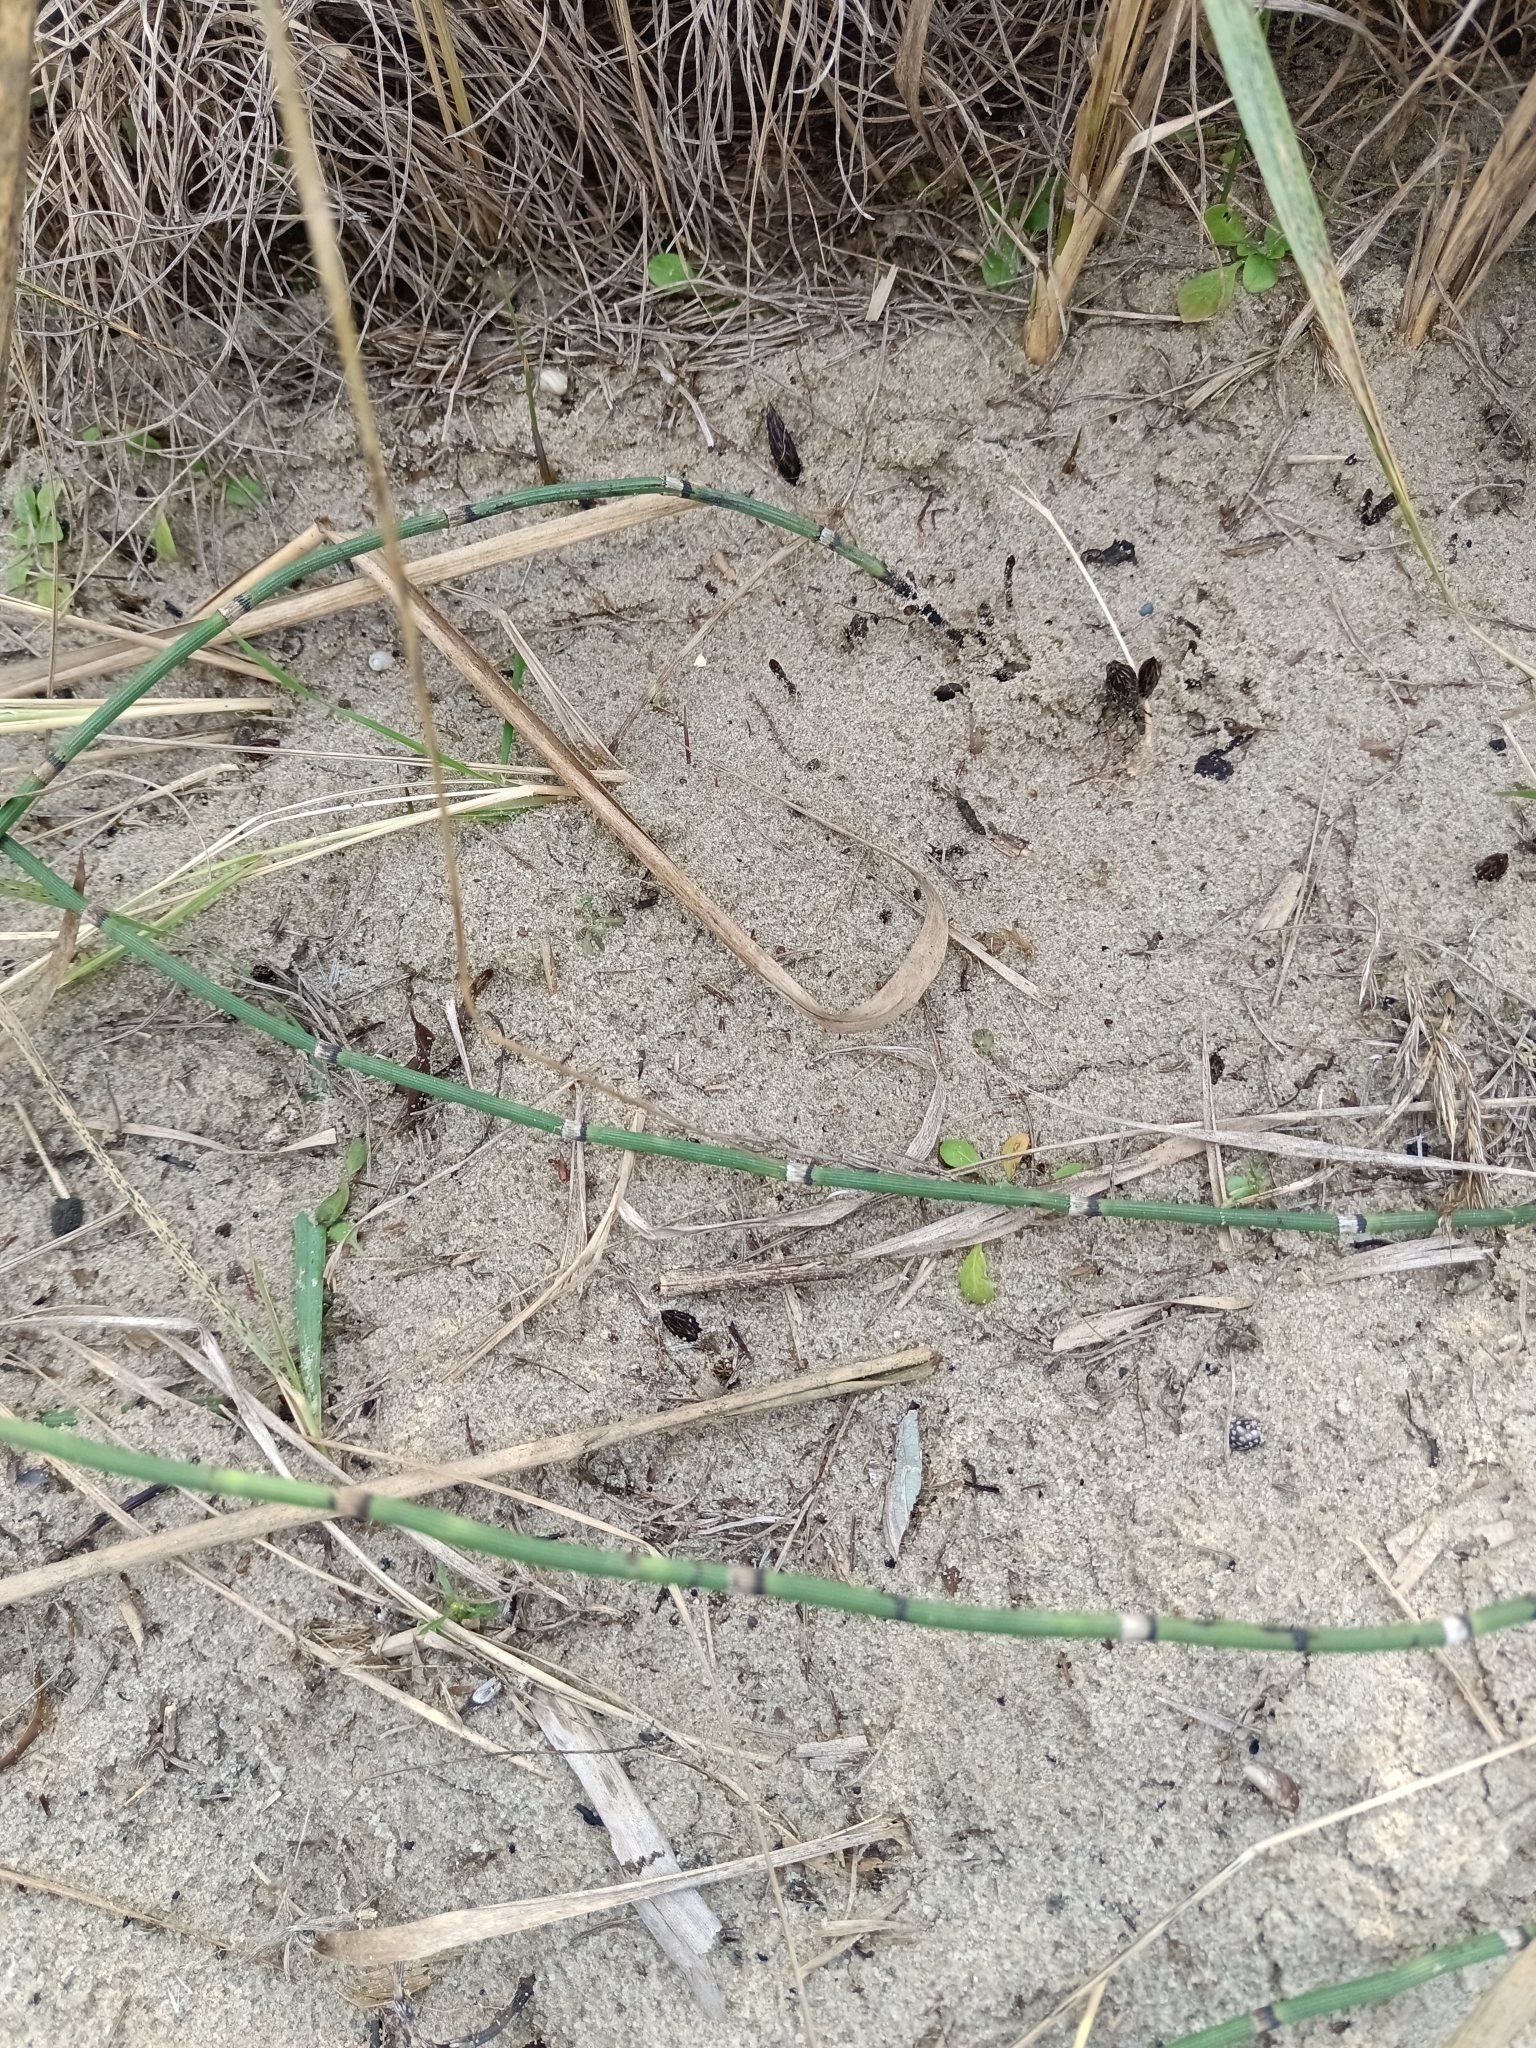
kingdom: Plantae
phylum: Tracheophyta
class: Polypodiopsida
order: Equisetales
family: Equisetaceae
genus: Equisetum
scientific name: Equisetum hyemale
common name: Rough horsetail
